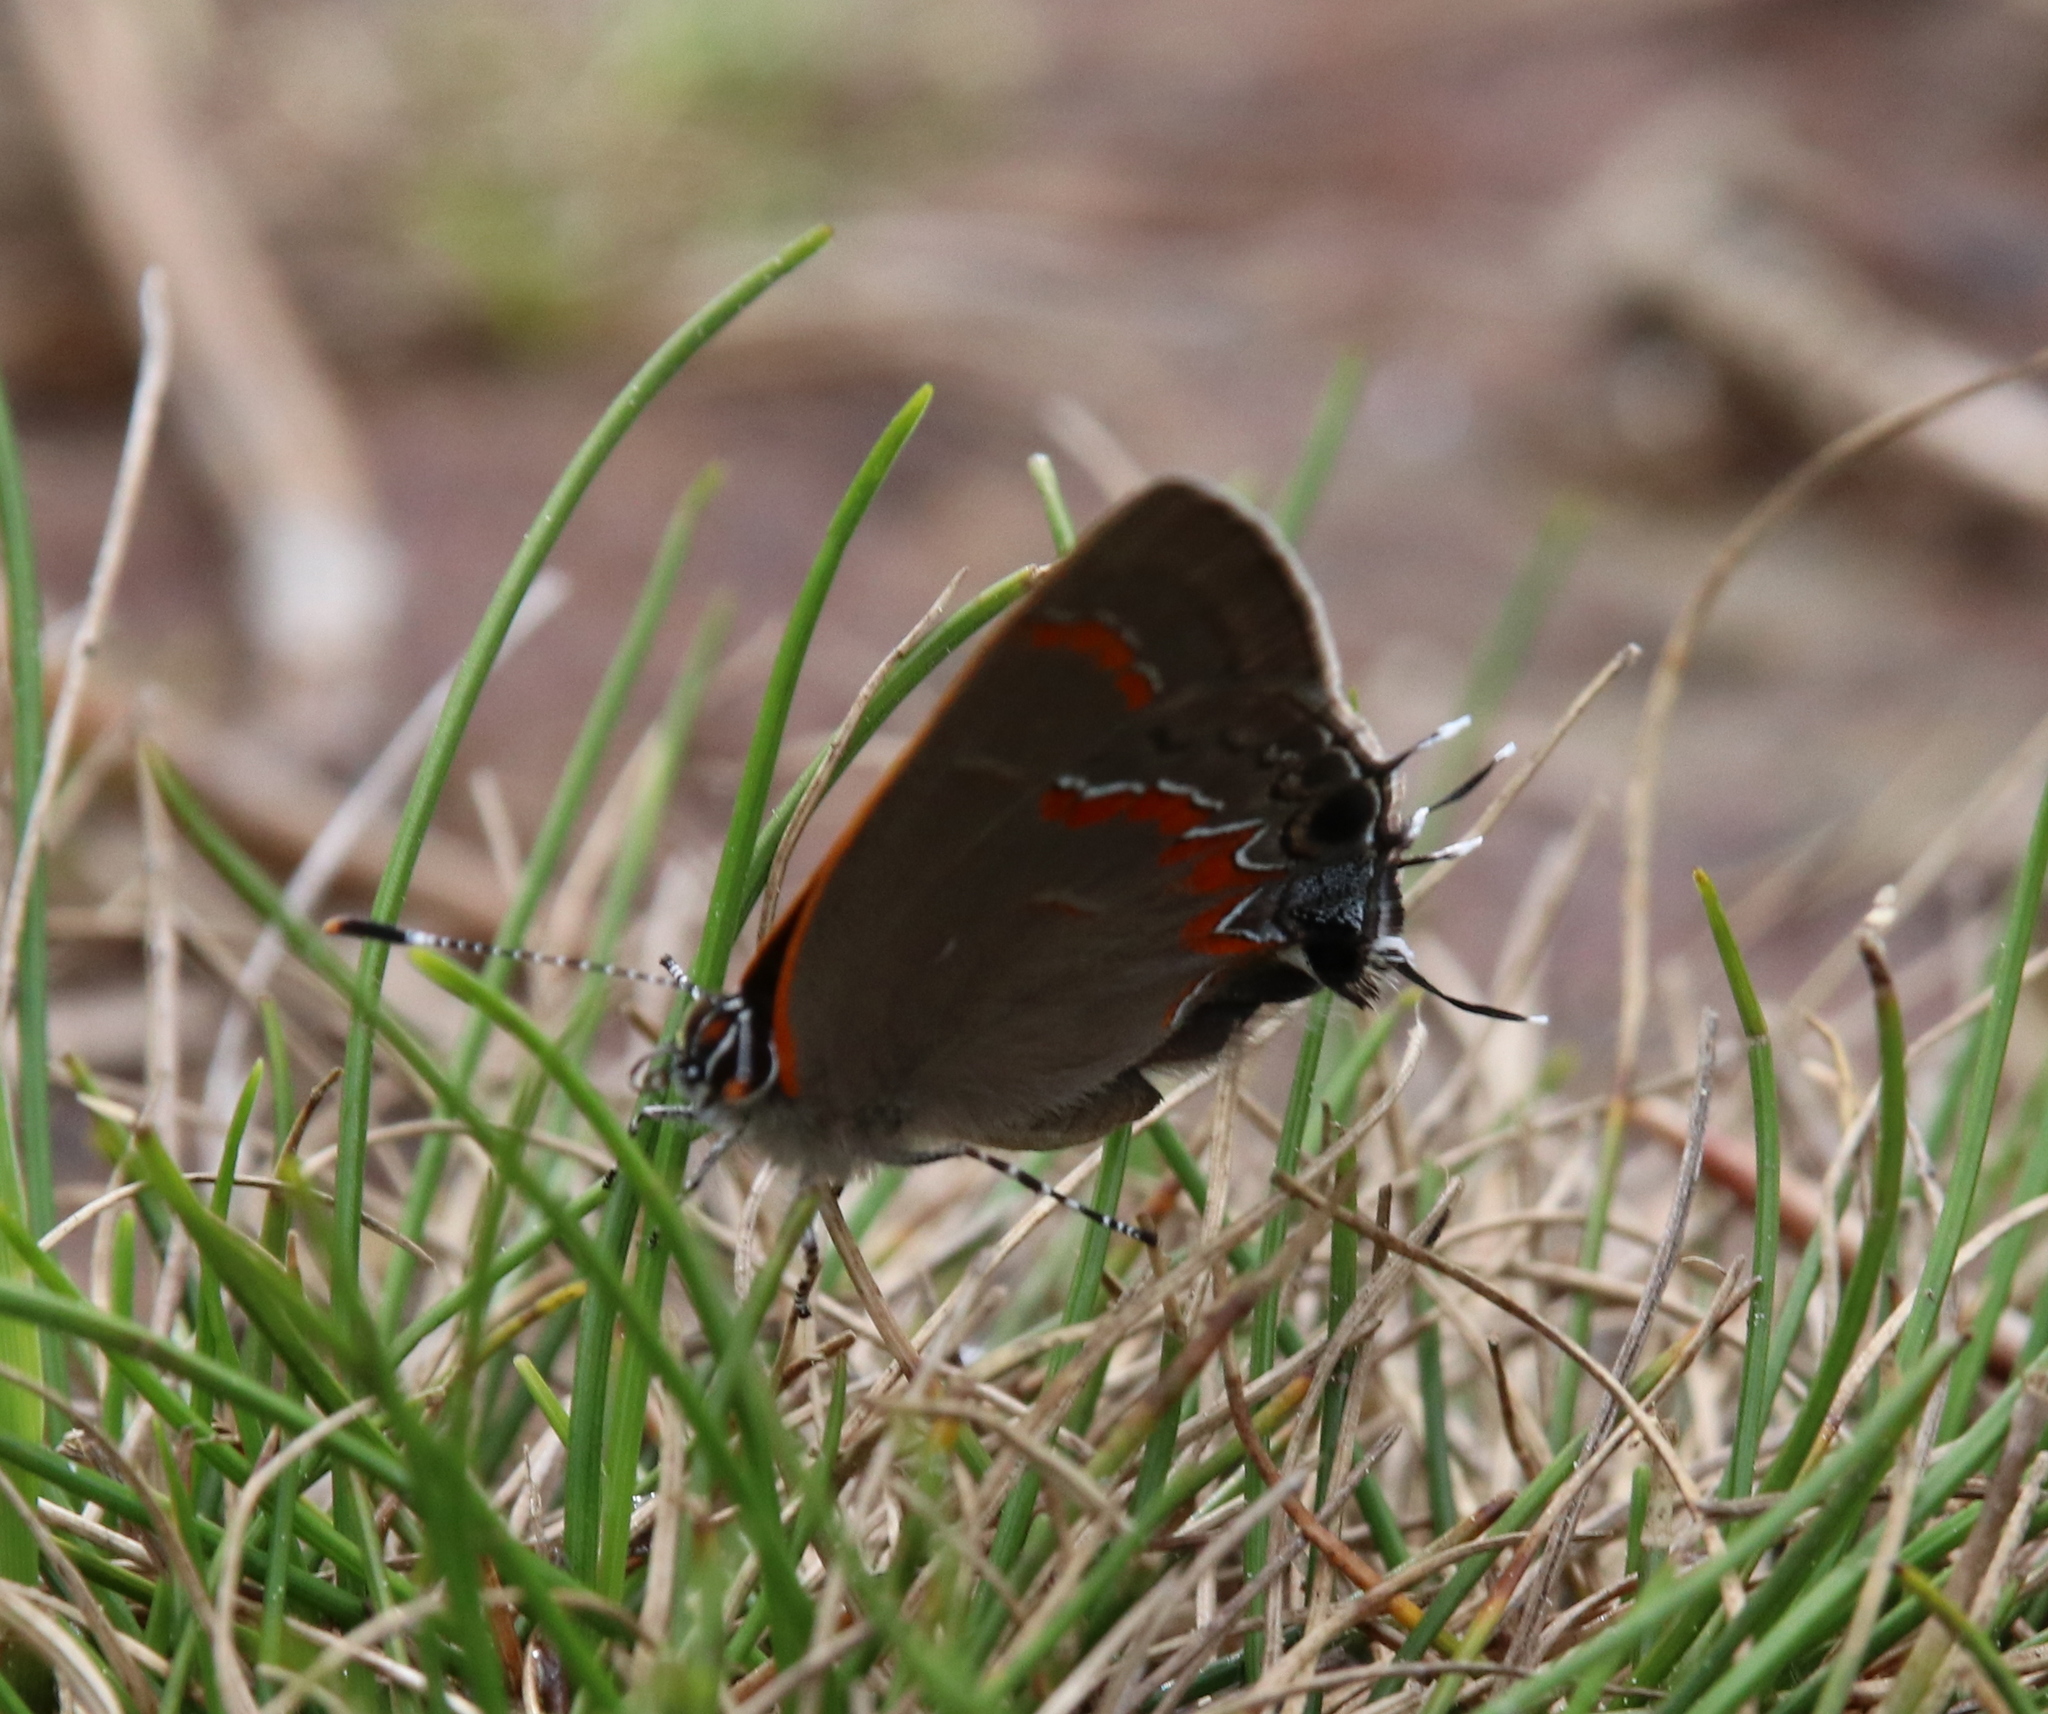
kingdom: Animalia
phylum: Arthropoda
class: Insecta
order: Lepidoptera
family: Lycaenidae
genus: Calycopis
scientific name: Calycopis cecrops
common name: Red-banded hairstreak
